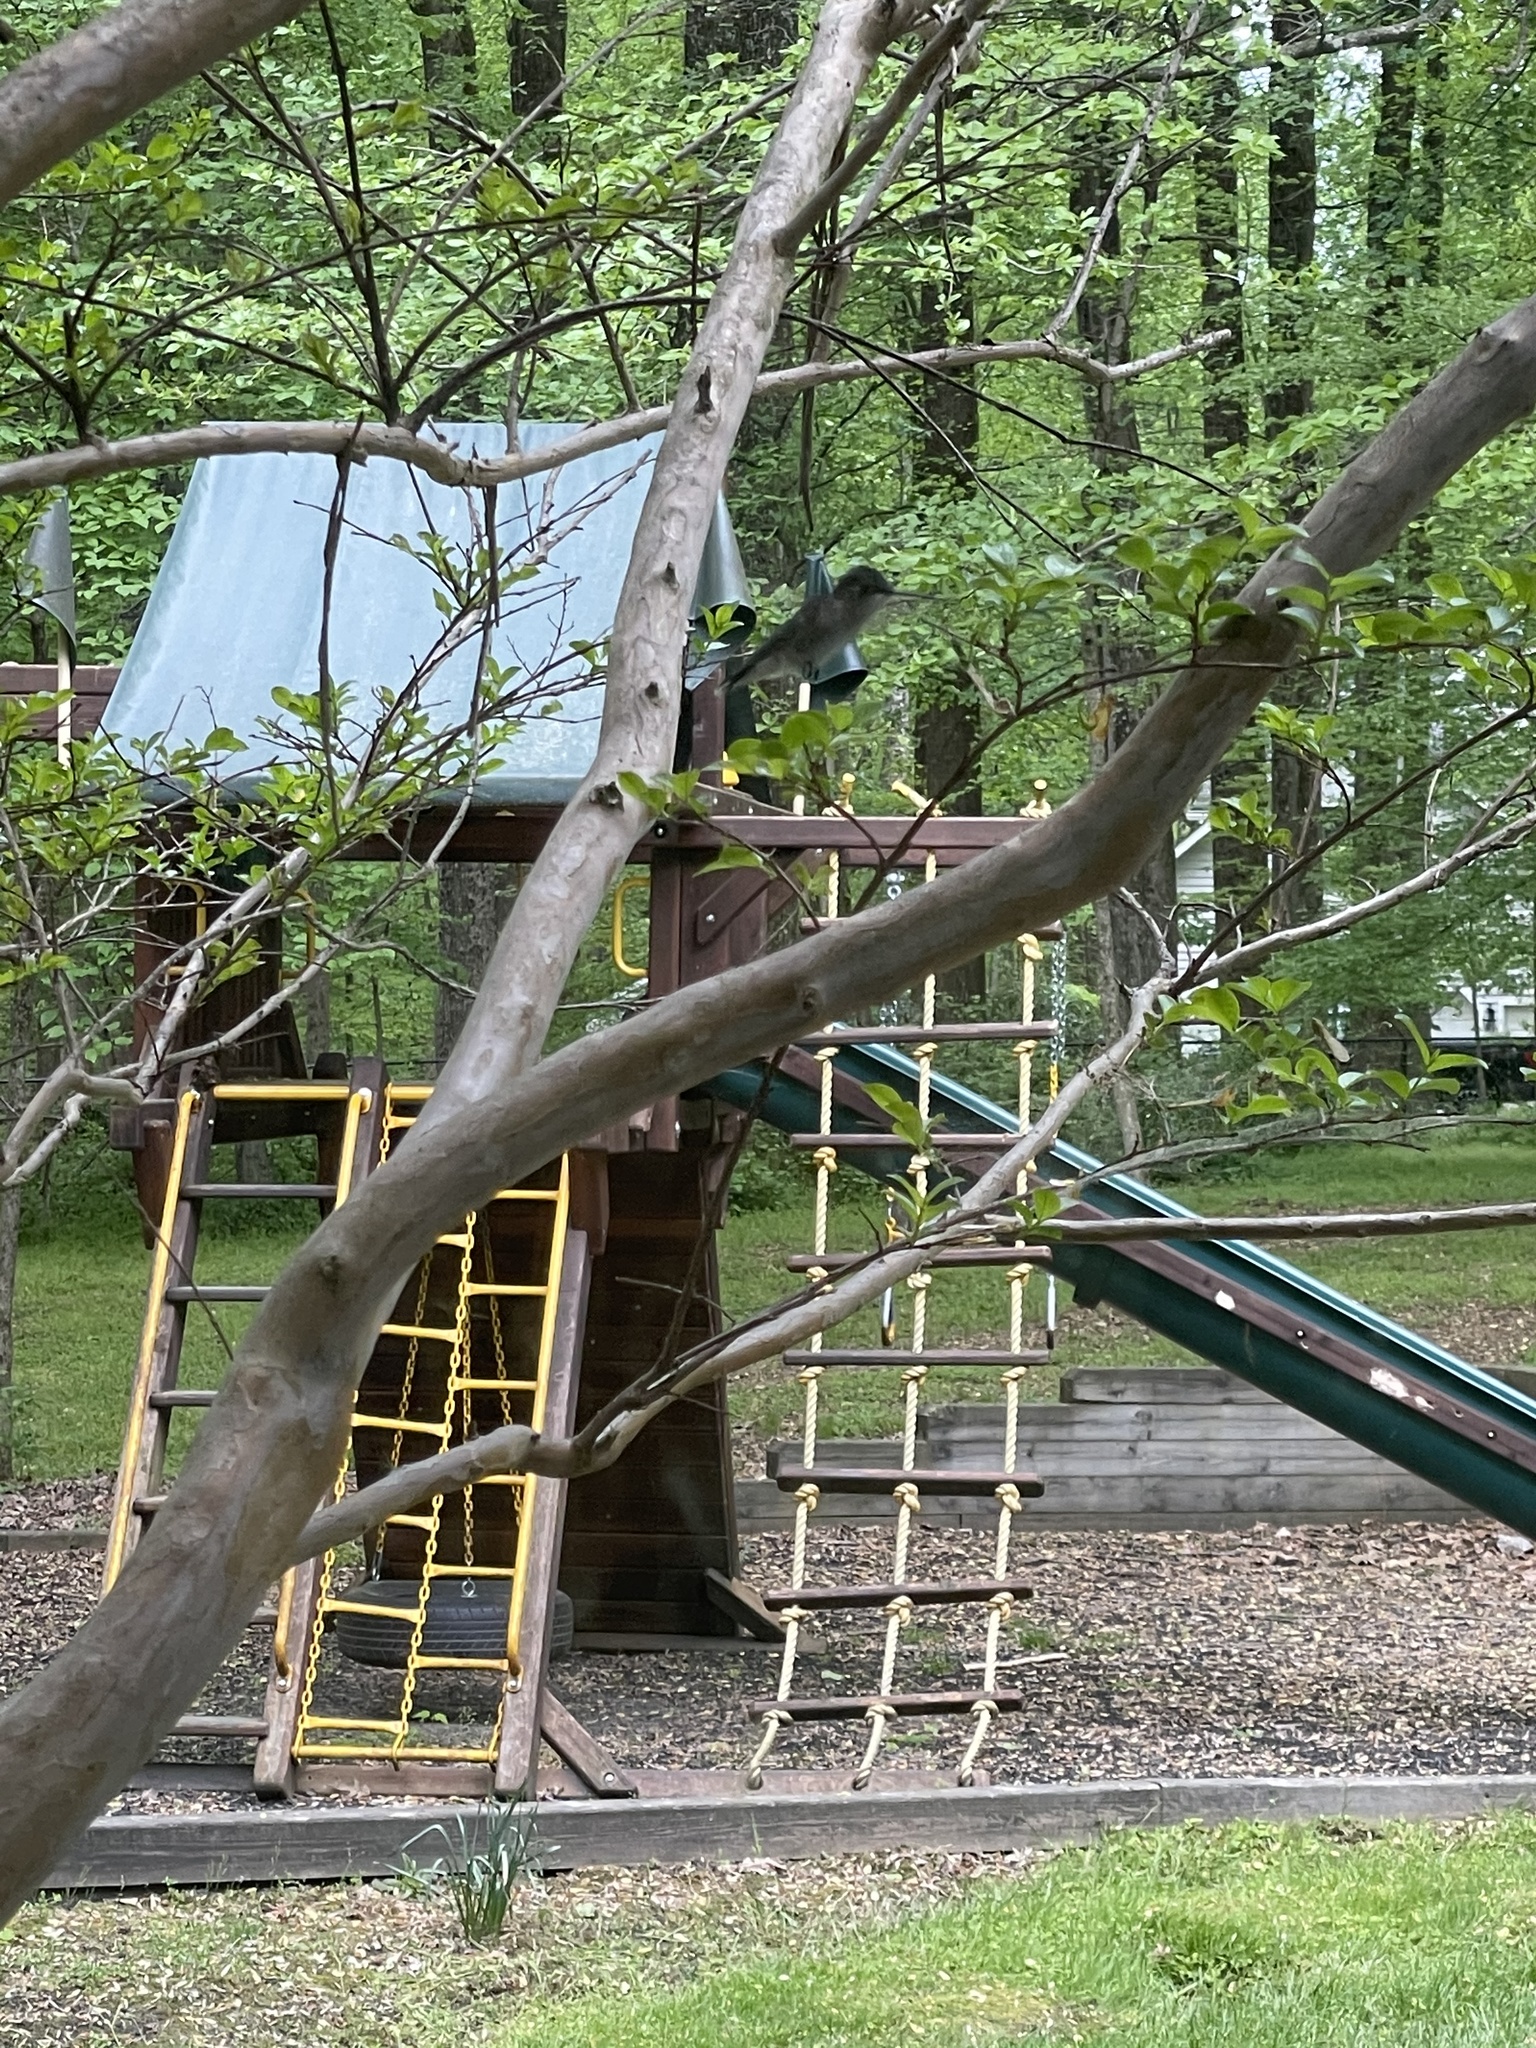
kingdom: Animalia
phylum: Chordata
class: Aves
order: Apodiformes
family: Trochilidae
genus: Archilochus
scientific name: Archilochus colubris
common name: Ruby-throated hummingbird
